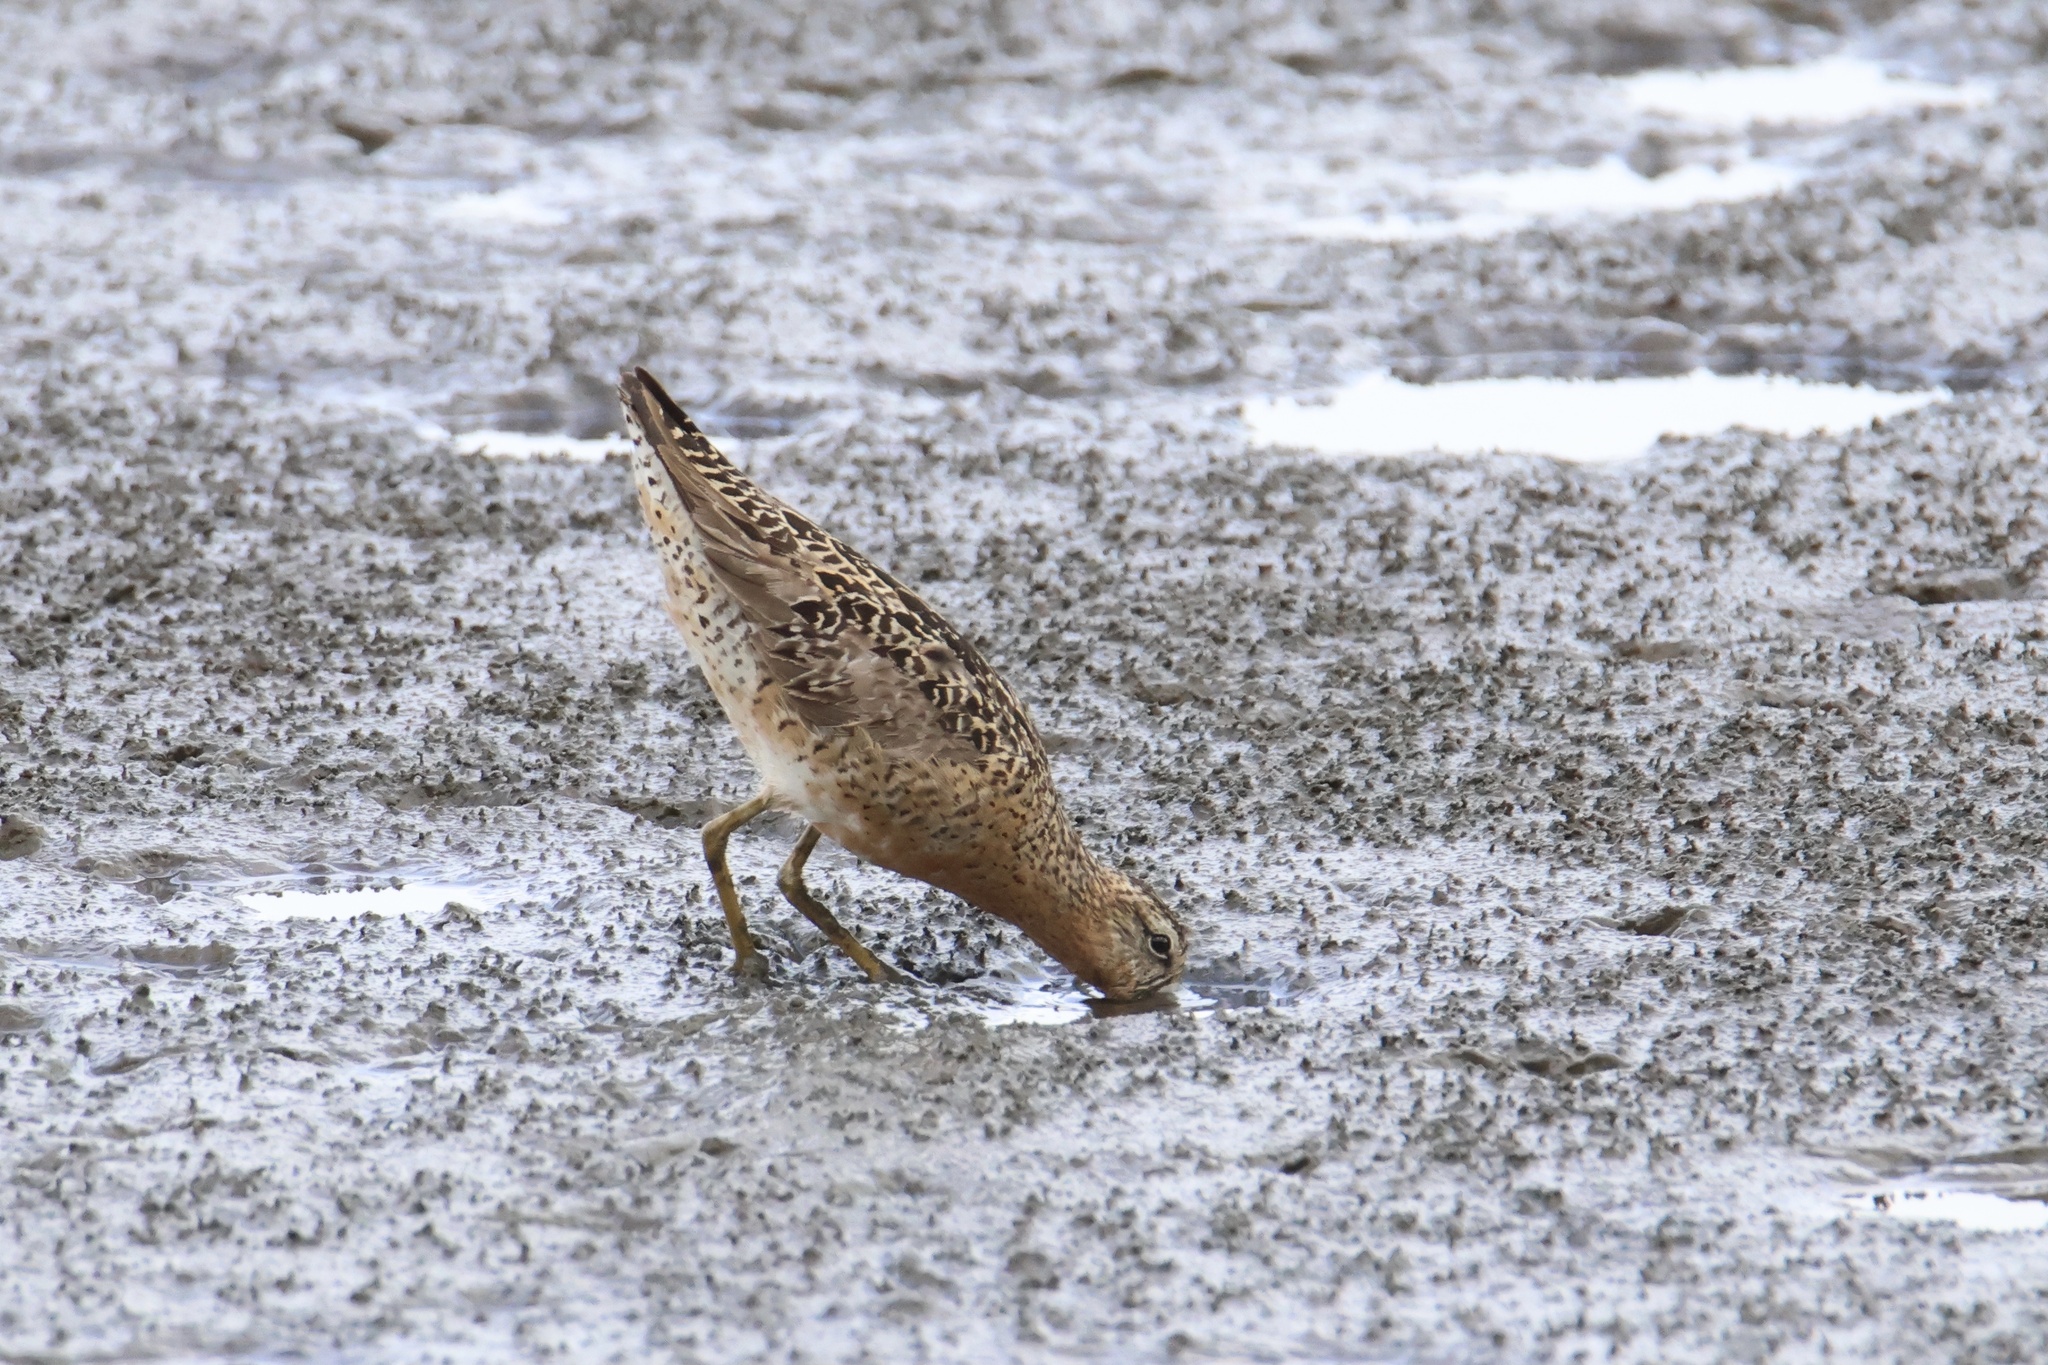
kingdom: Animalia
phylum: Chordata
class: Aves
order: Charadriiformes
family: Scolopacidae
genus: Limnodromus
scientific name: Limnodromus griseus
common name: Short-billed dowitcher
